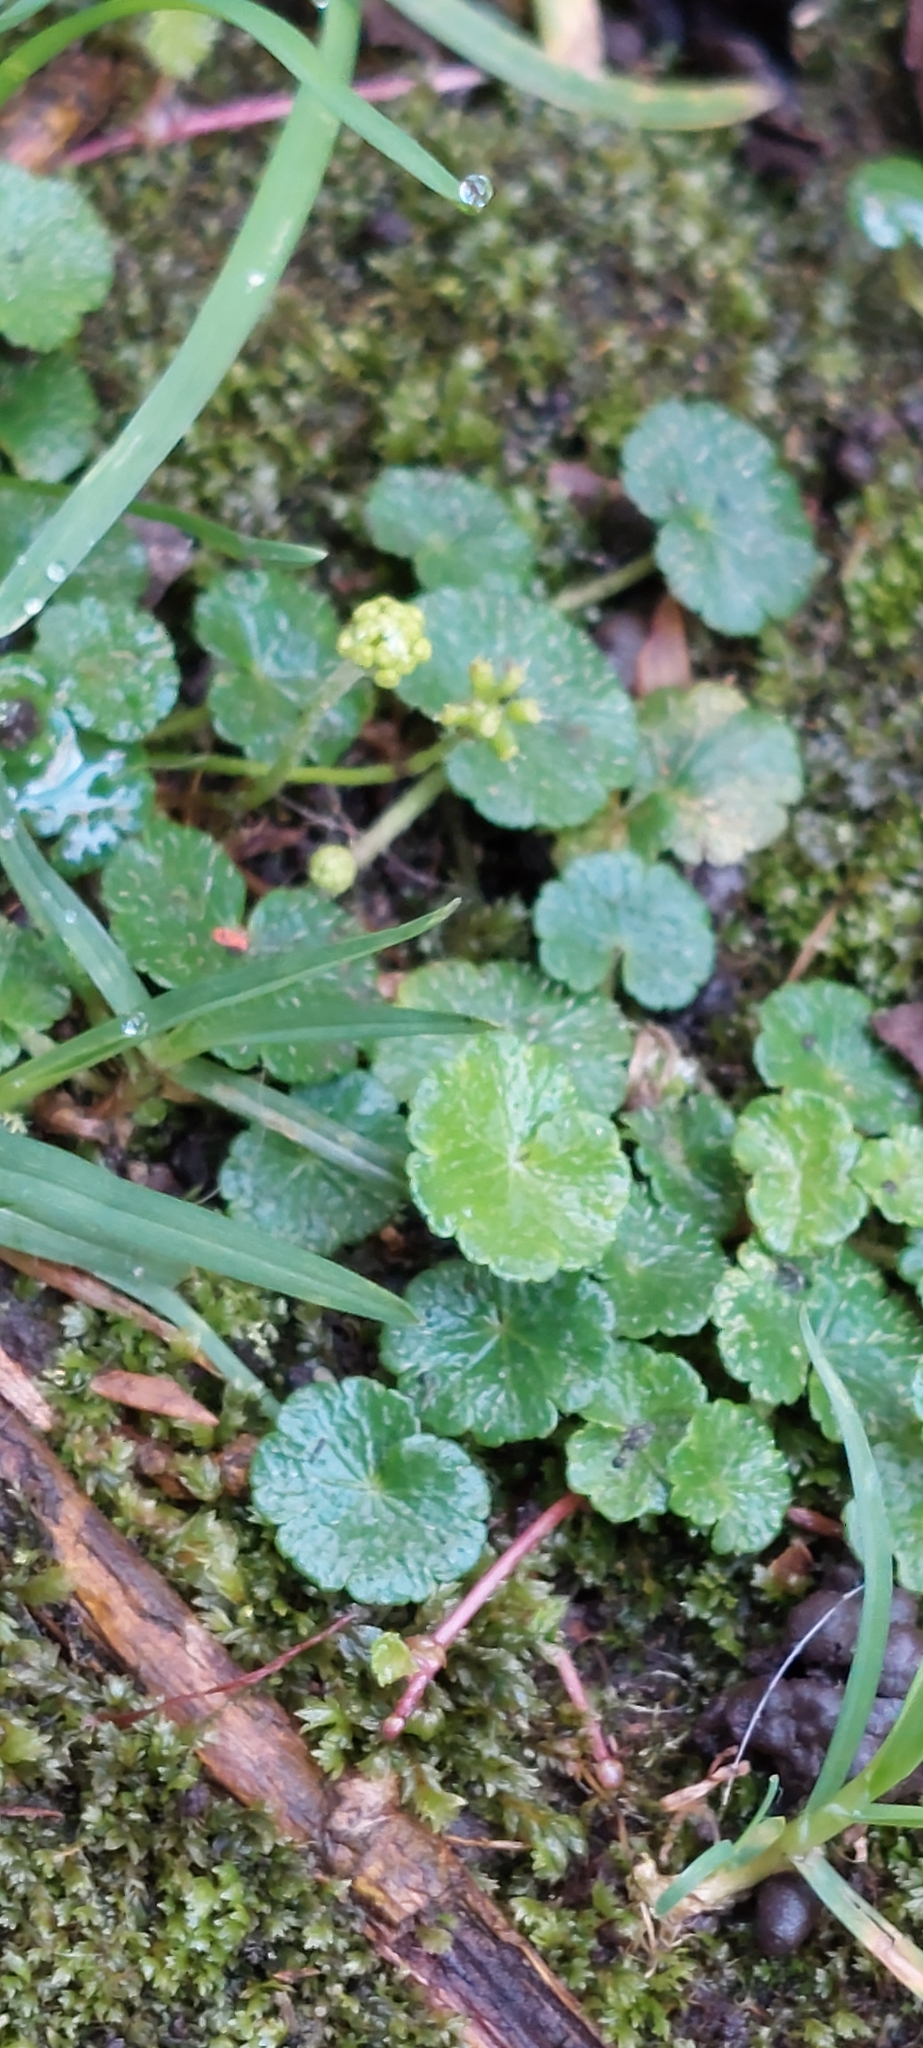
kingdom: Plantae
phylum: Tracheophyta
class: Magnoliopsida
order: Apiales
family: Araliaceae
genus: Hydrocotyle
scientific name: Hydrocotyle bonplandii
